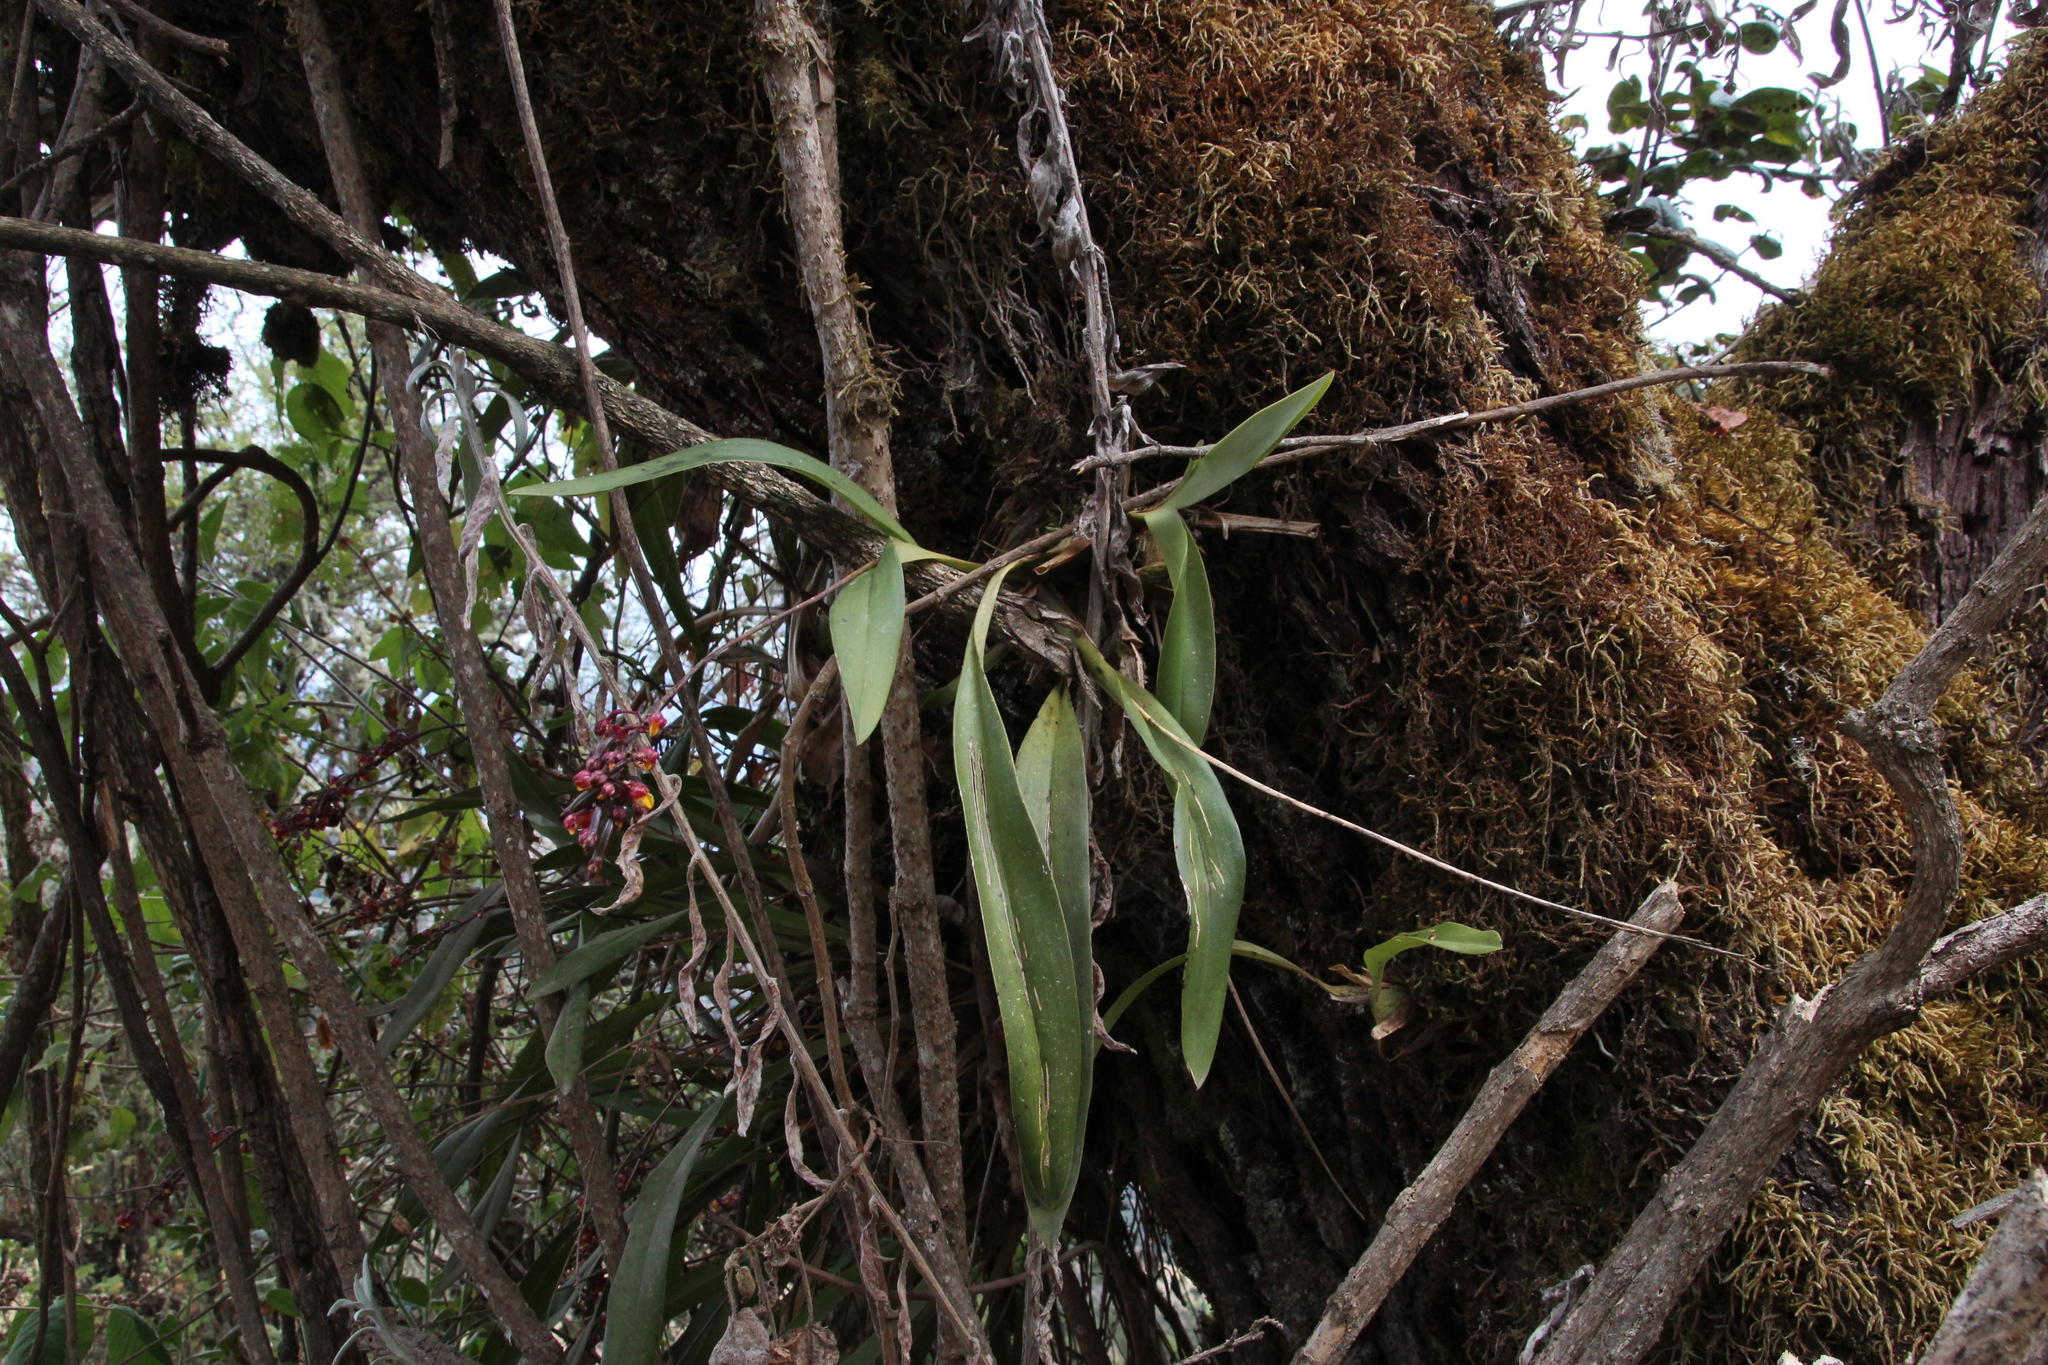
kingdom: Plantae
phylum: Tracheophyta
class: Liliopsida
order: Asparagales
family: Orchidaceae
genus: Cyrtochilum
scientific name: Cyrtochilum rhodoneurum
